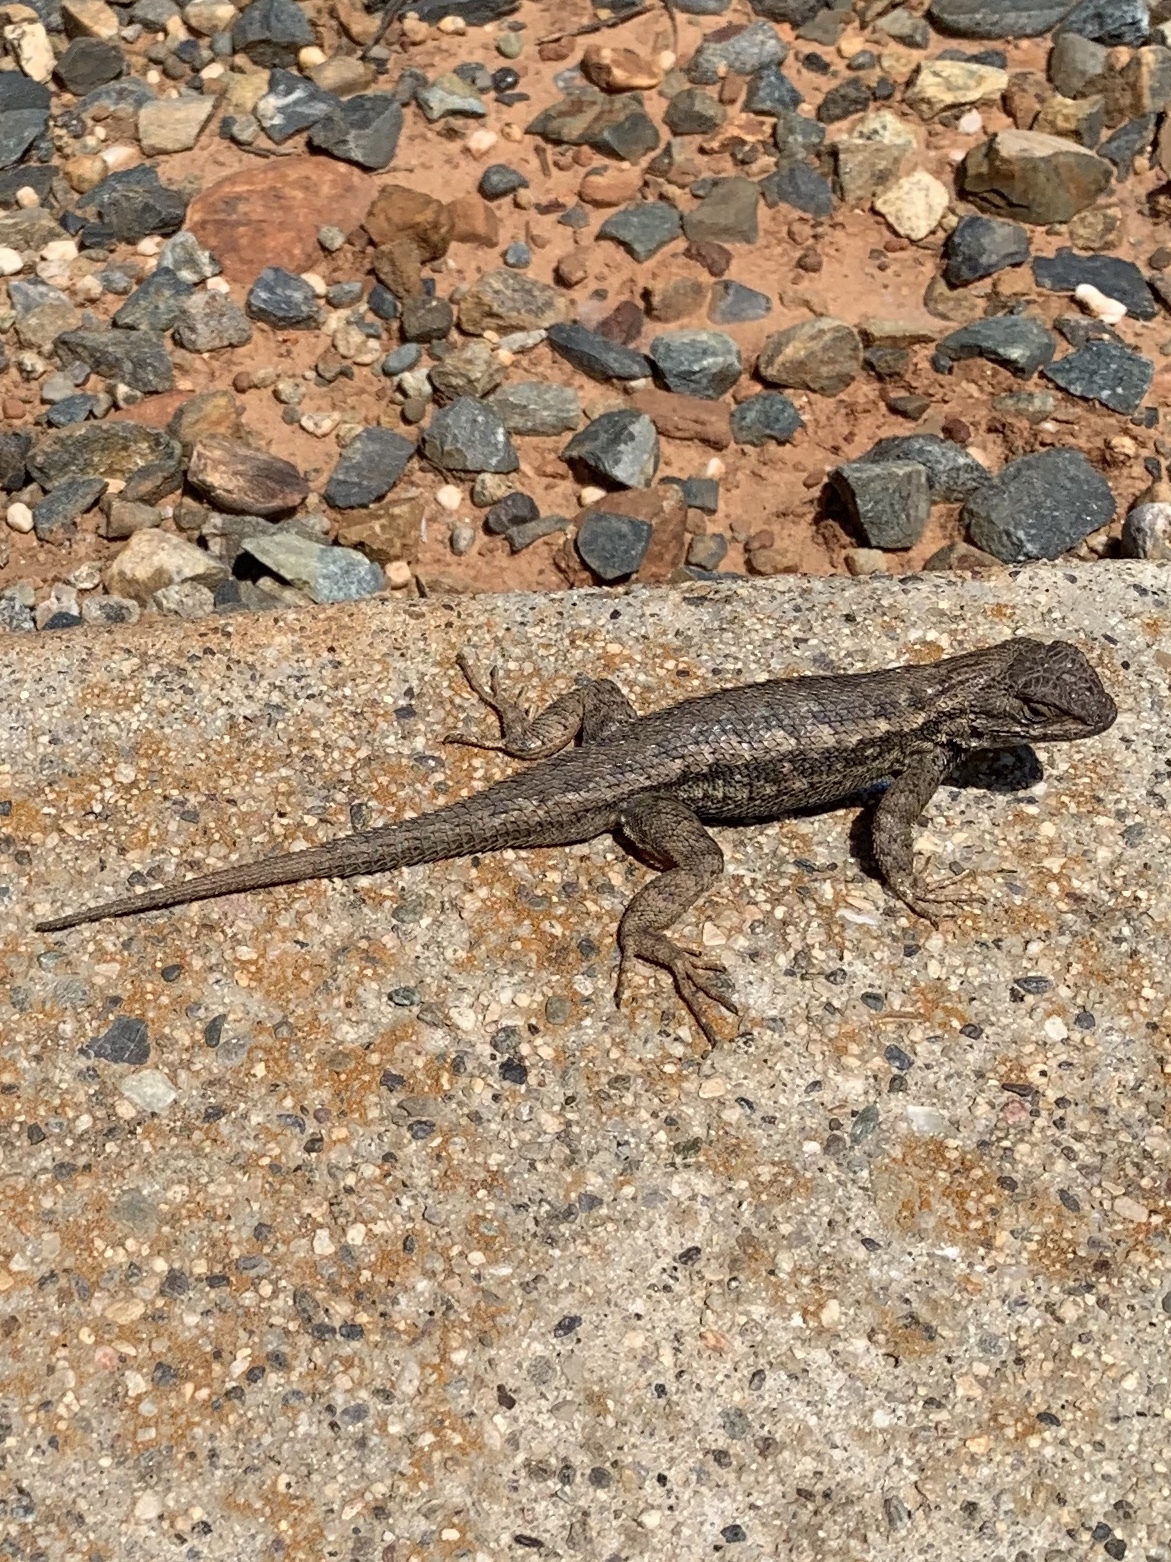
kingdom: Animalia
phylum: Chordata
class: Squamata
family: Phrynosomatidae
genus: Sceloporus
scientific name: Sceloporus occidentalis
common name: Western fence lizard
